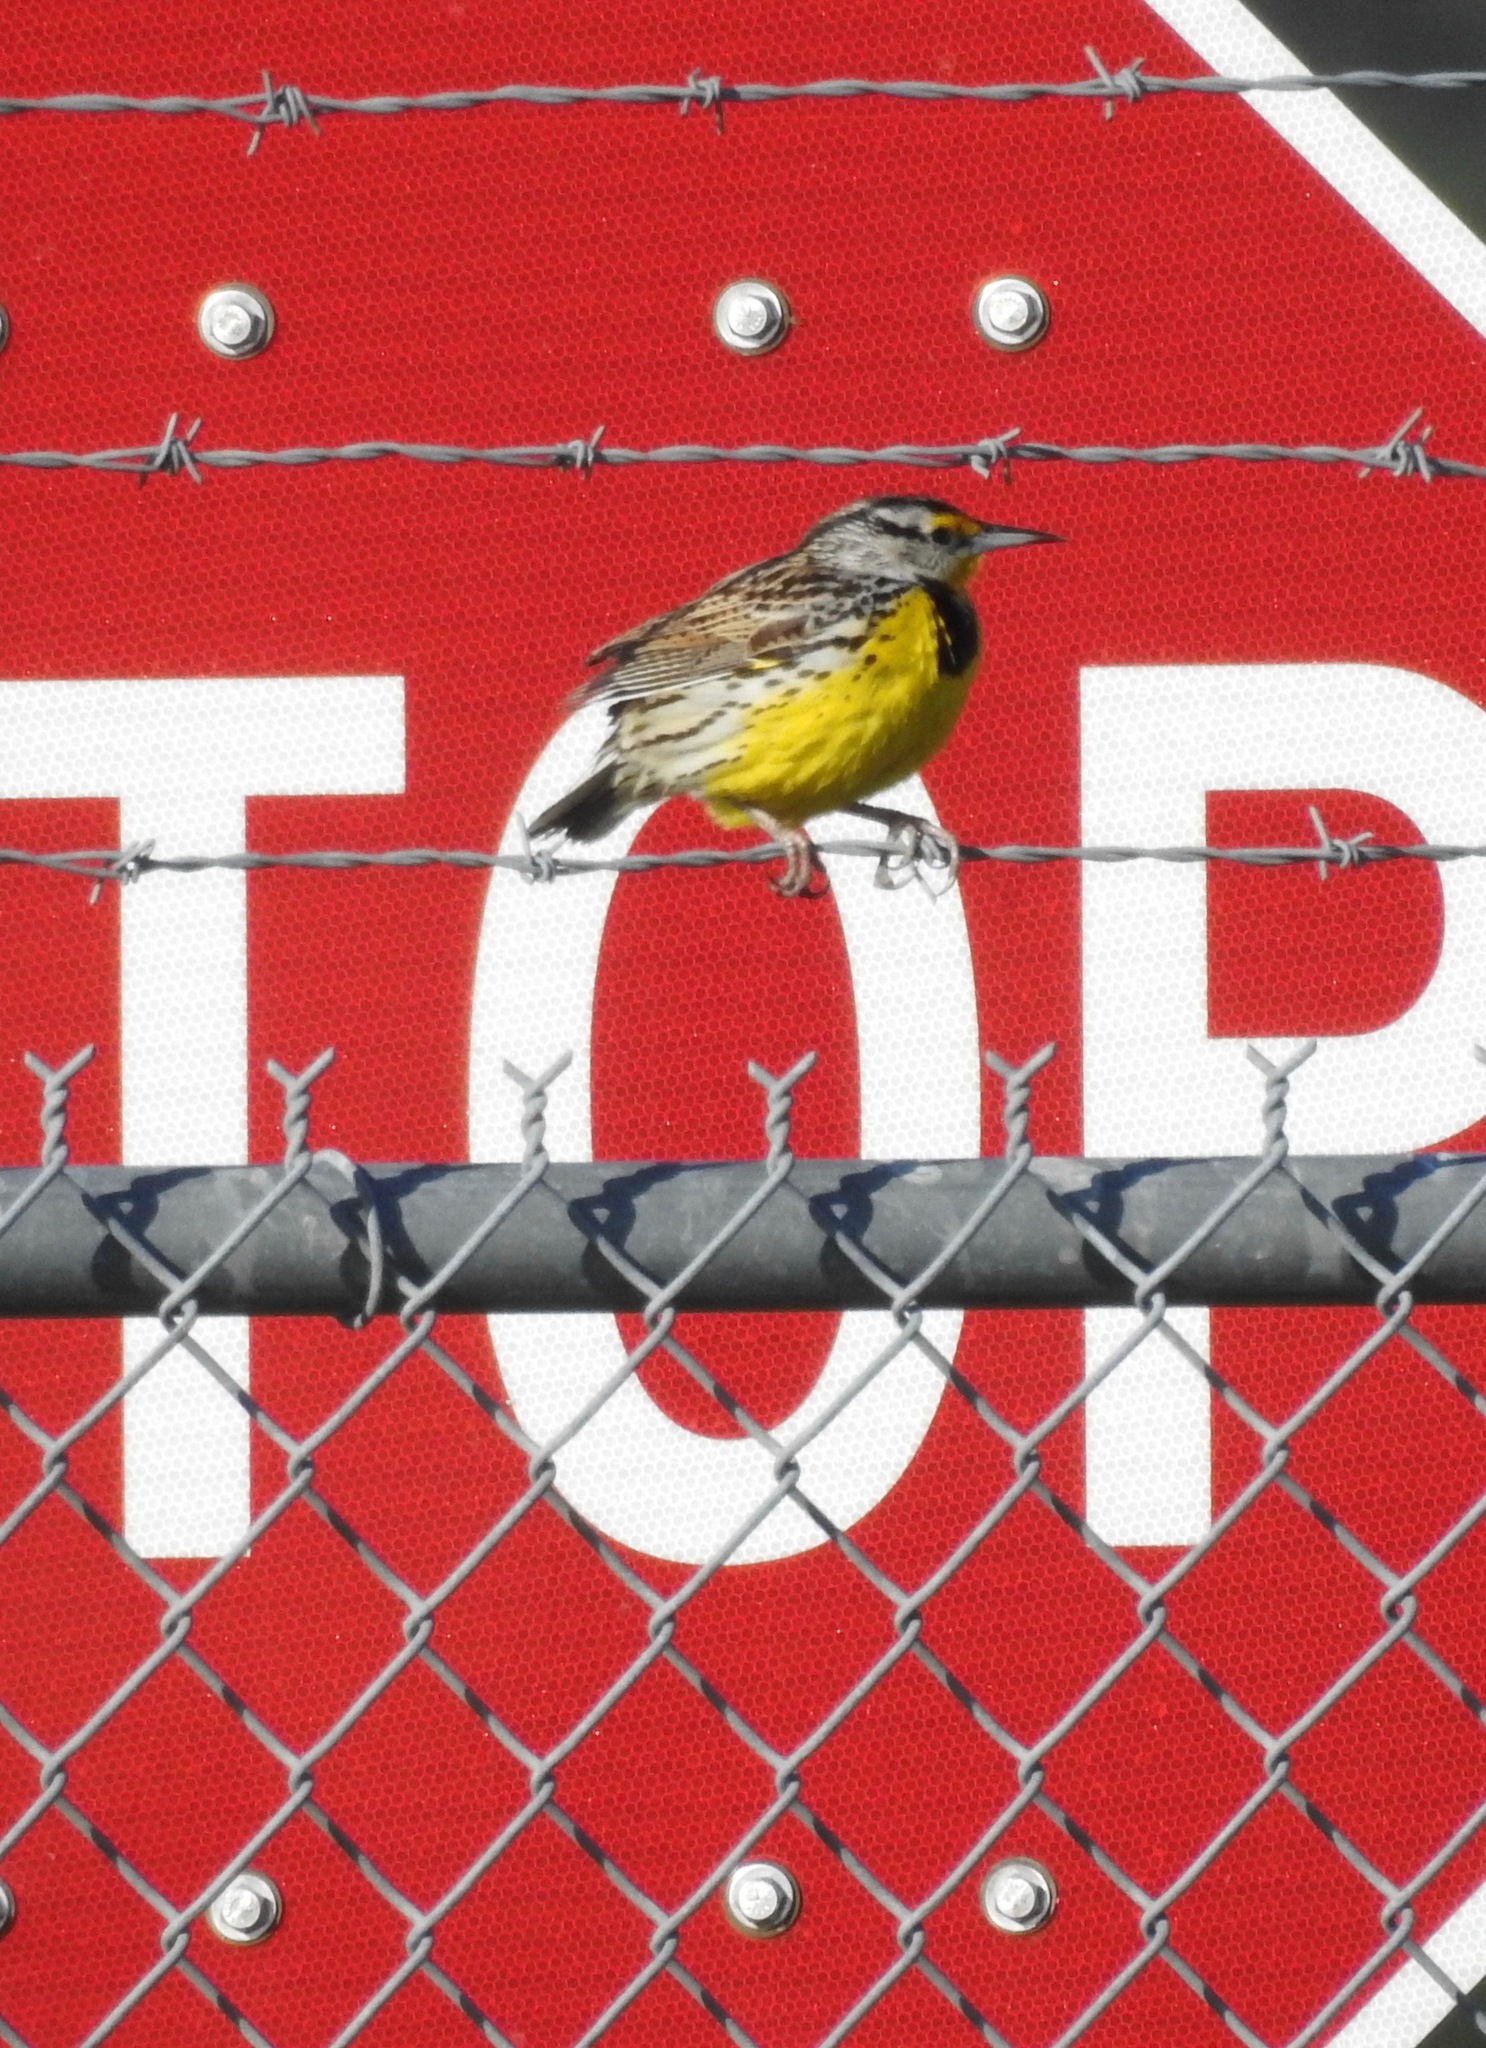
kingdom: Animalia
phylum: Chordata
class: Aves
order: Passeriformes
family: Icteridae
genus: Sturnella
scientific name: Sturnella magna
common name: Eastern meadowlark
